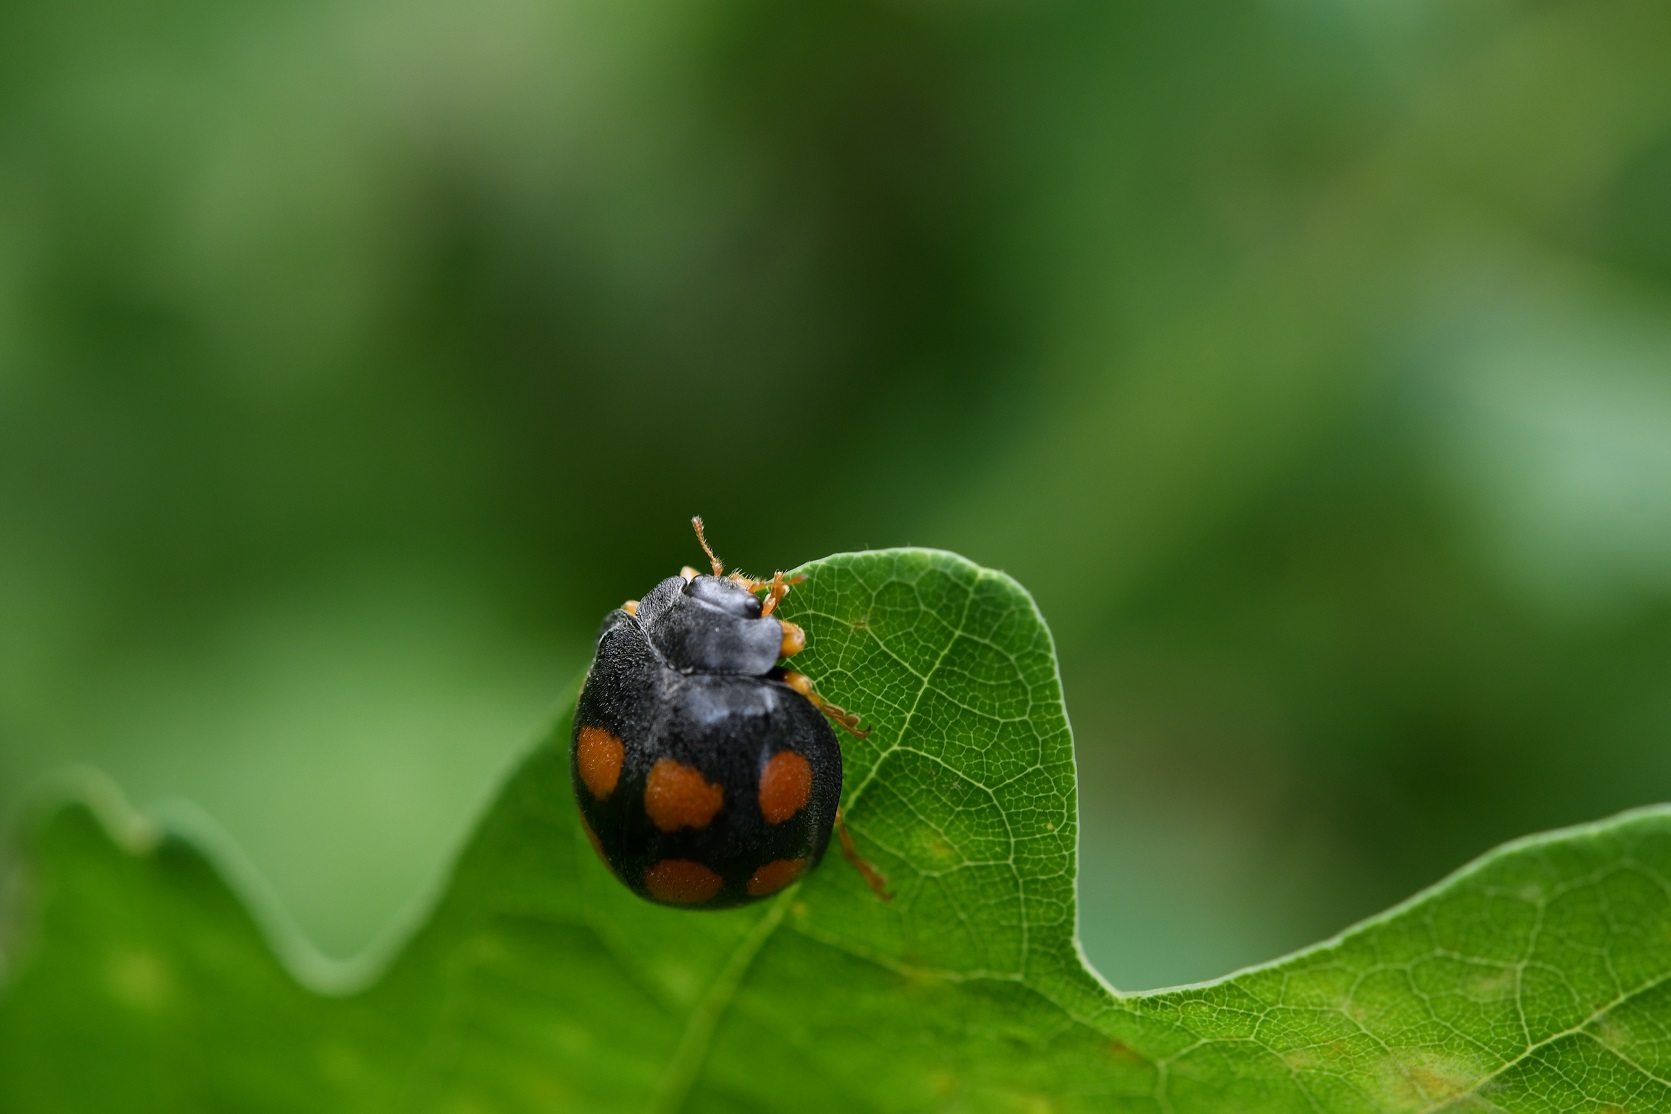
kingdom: Animalia
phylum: Arthropoda
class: Insecta
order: Coleoptera
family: Coccinellidae
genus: Epilachna
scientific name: Epilachna
